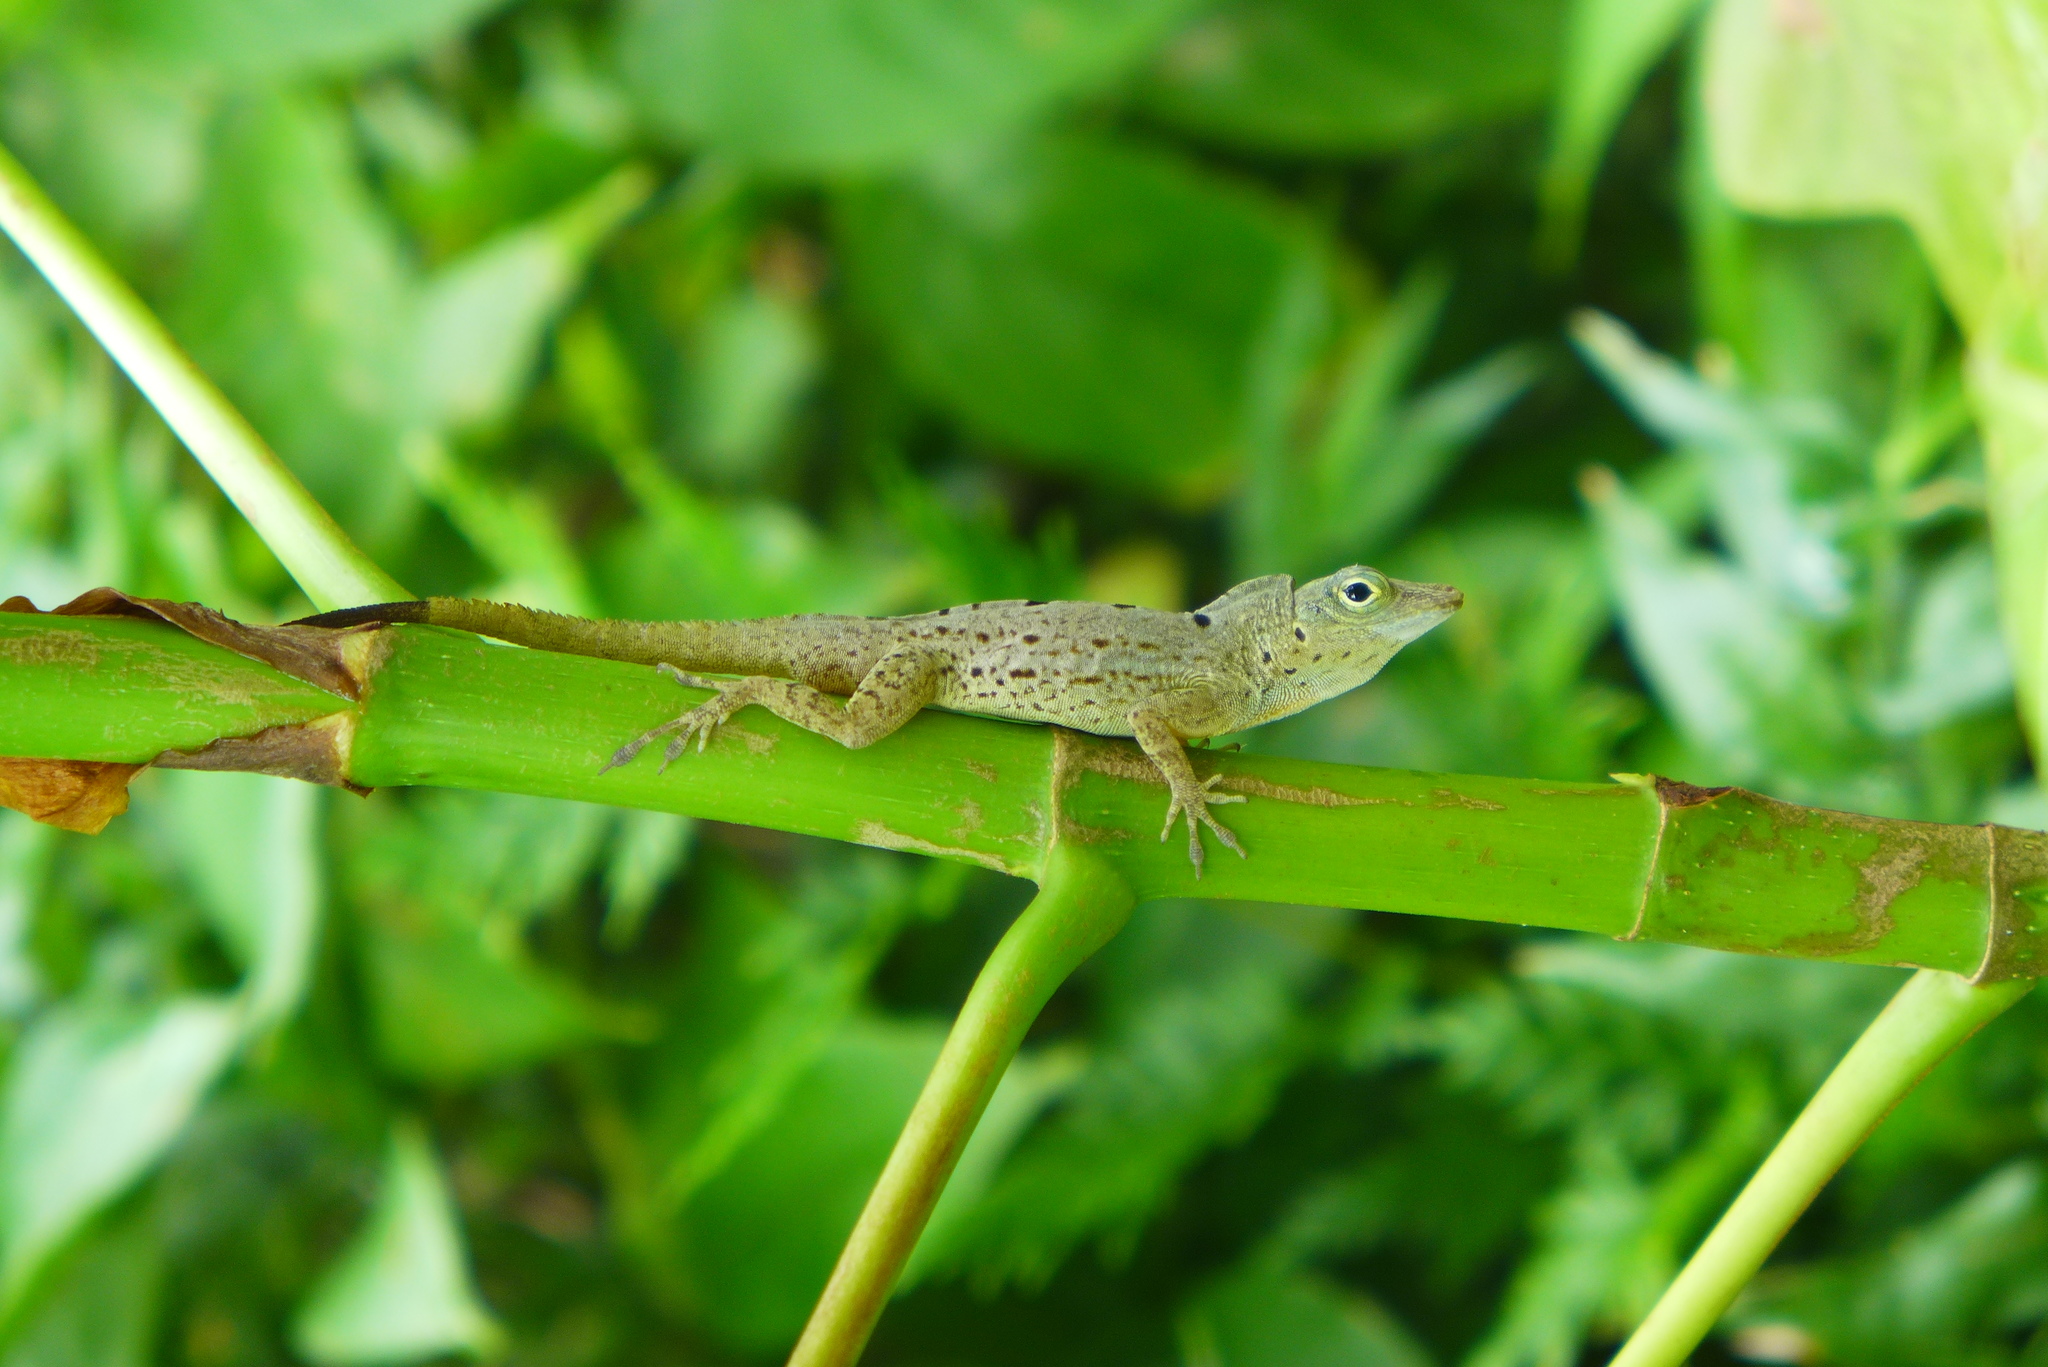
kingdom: Animalia
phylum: Chordata
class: Squamata
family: Dactyloidae
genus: Anolis
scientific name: Anolis stratulus
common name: Banded anole
